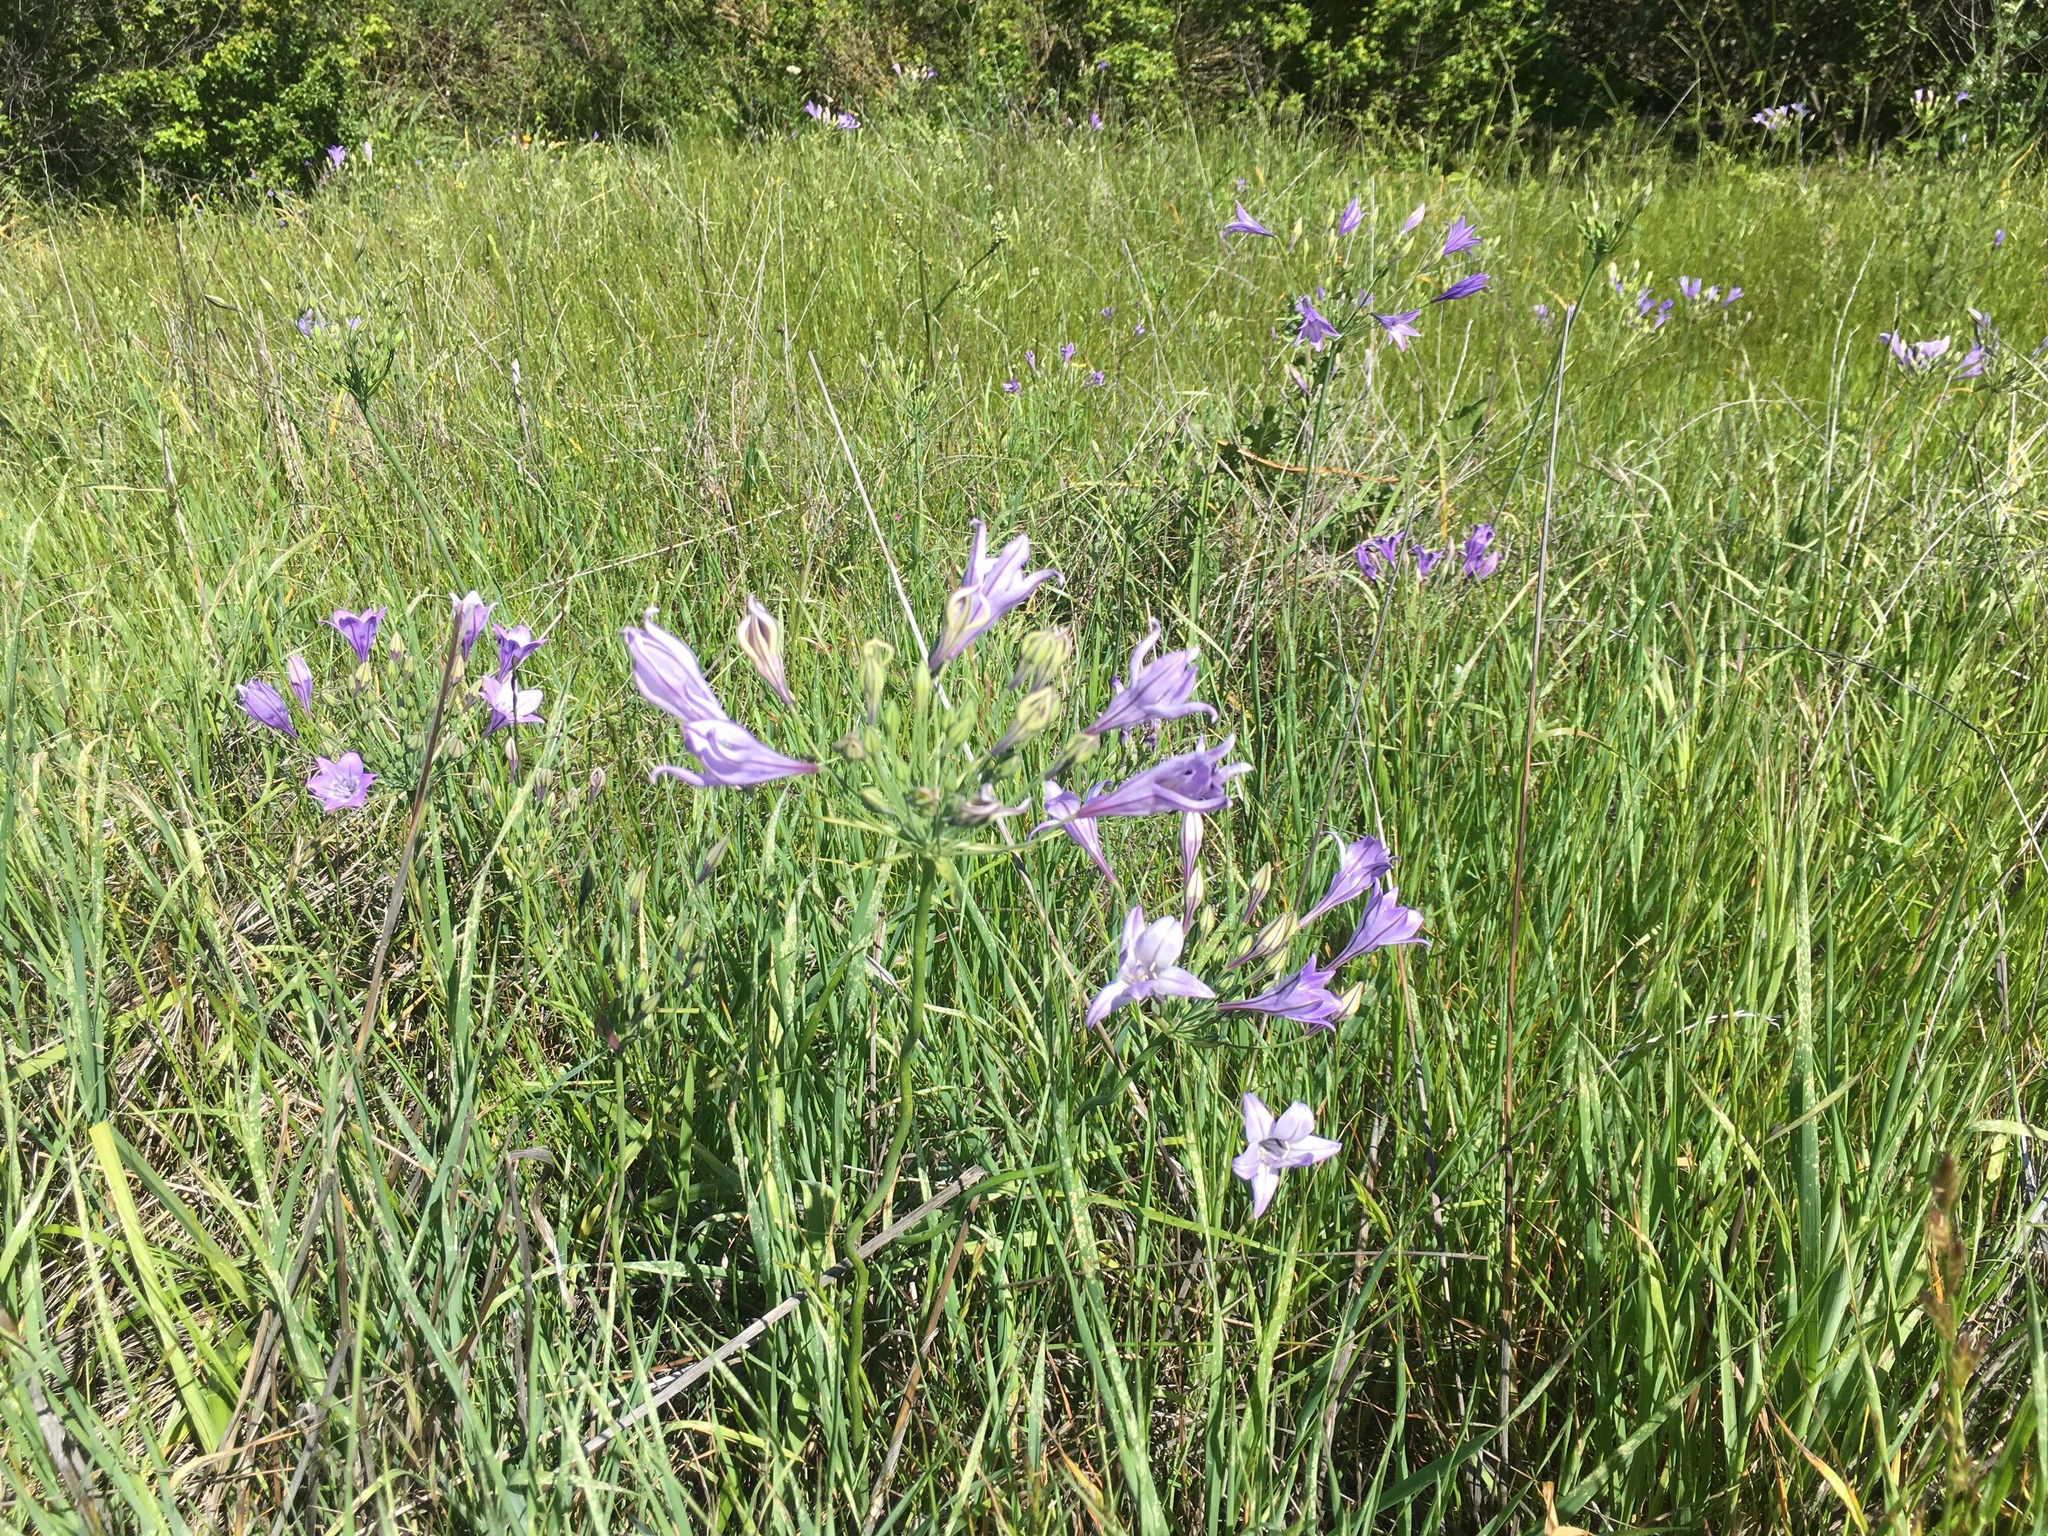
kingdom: Plantae
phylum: Tracheophyta
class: Liliopsida
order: Asparagales
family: Asparagaceae
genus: Triteleia
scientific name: Triteleia laxa
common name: Triplet-lily
